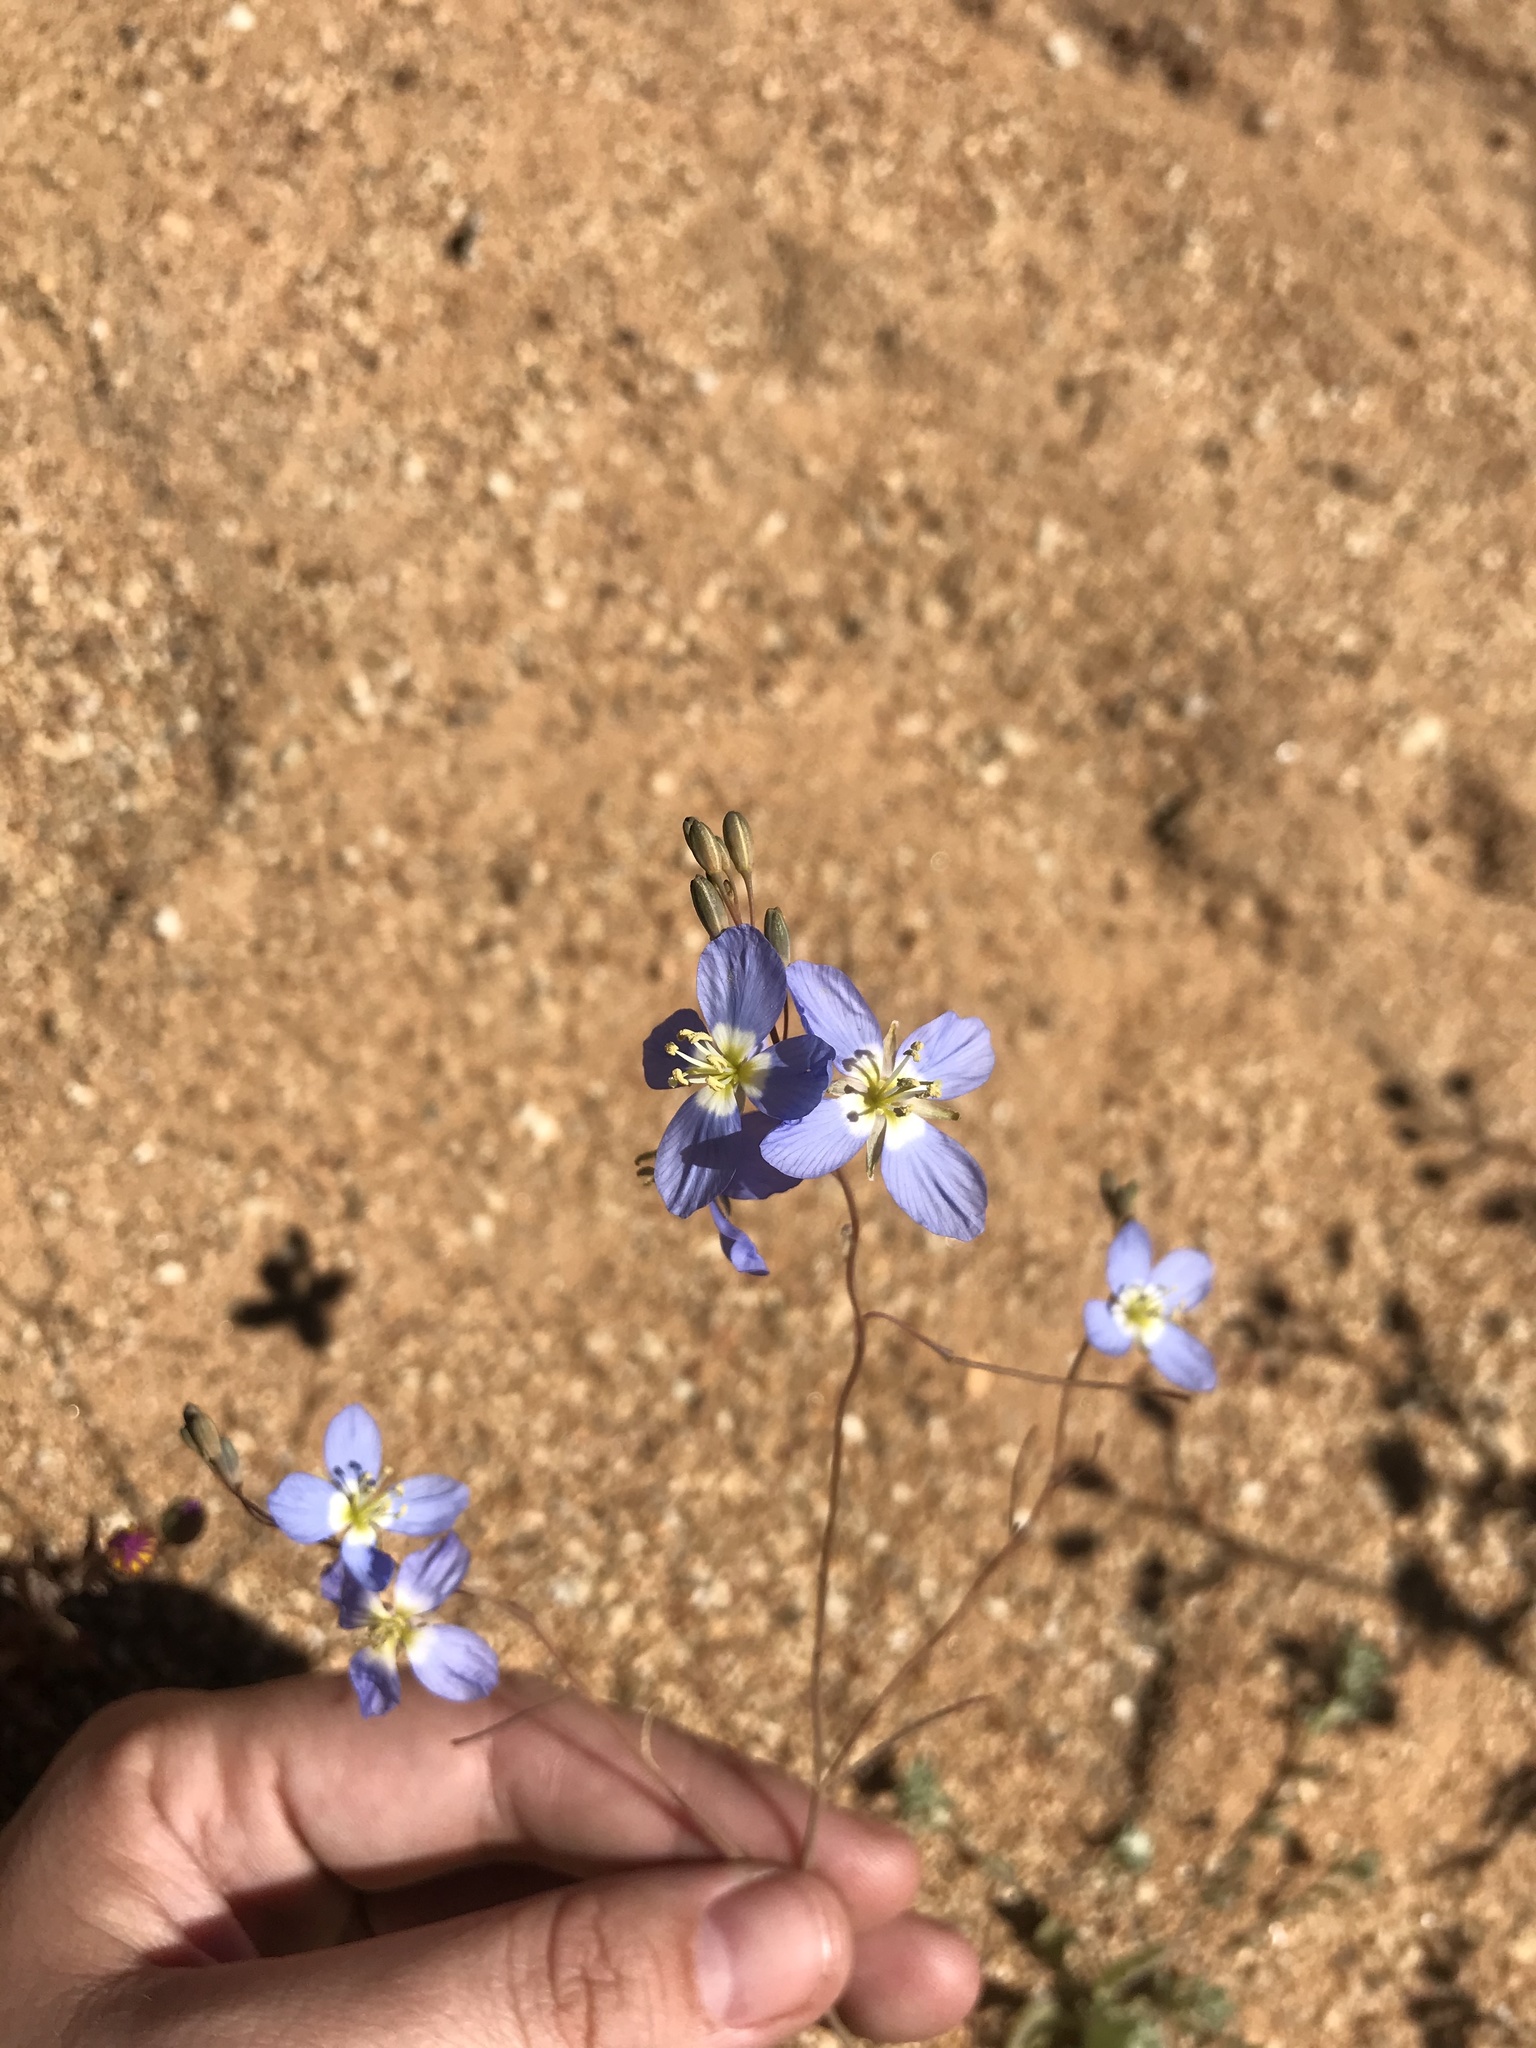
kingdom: Plantae
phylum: Tracheophyta
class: Magnoliopsida
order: Brassicales
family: Brassicaceae
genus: Heliophila
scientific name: Heliophila lactea
